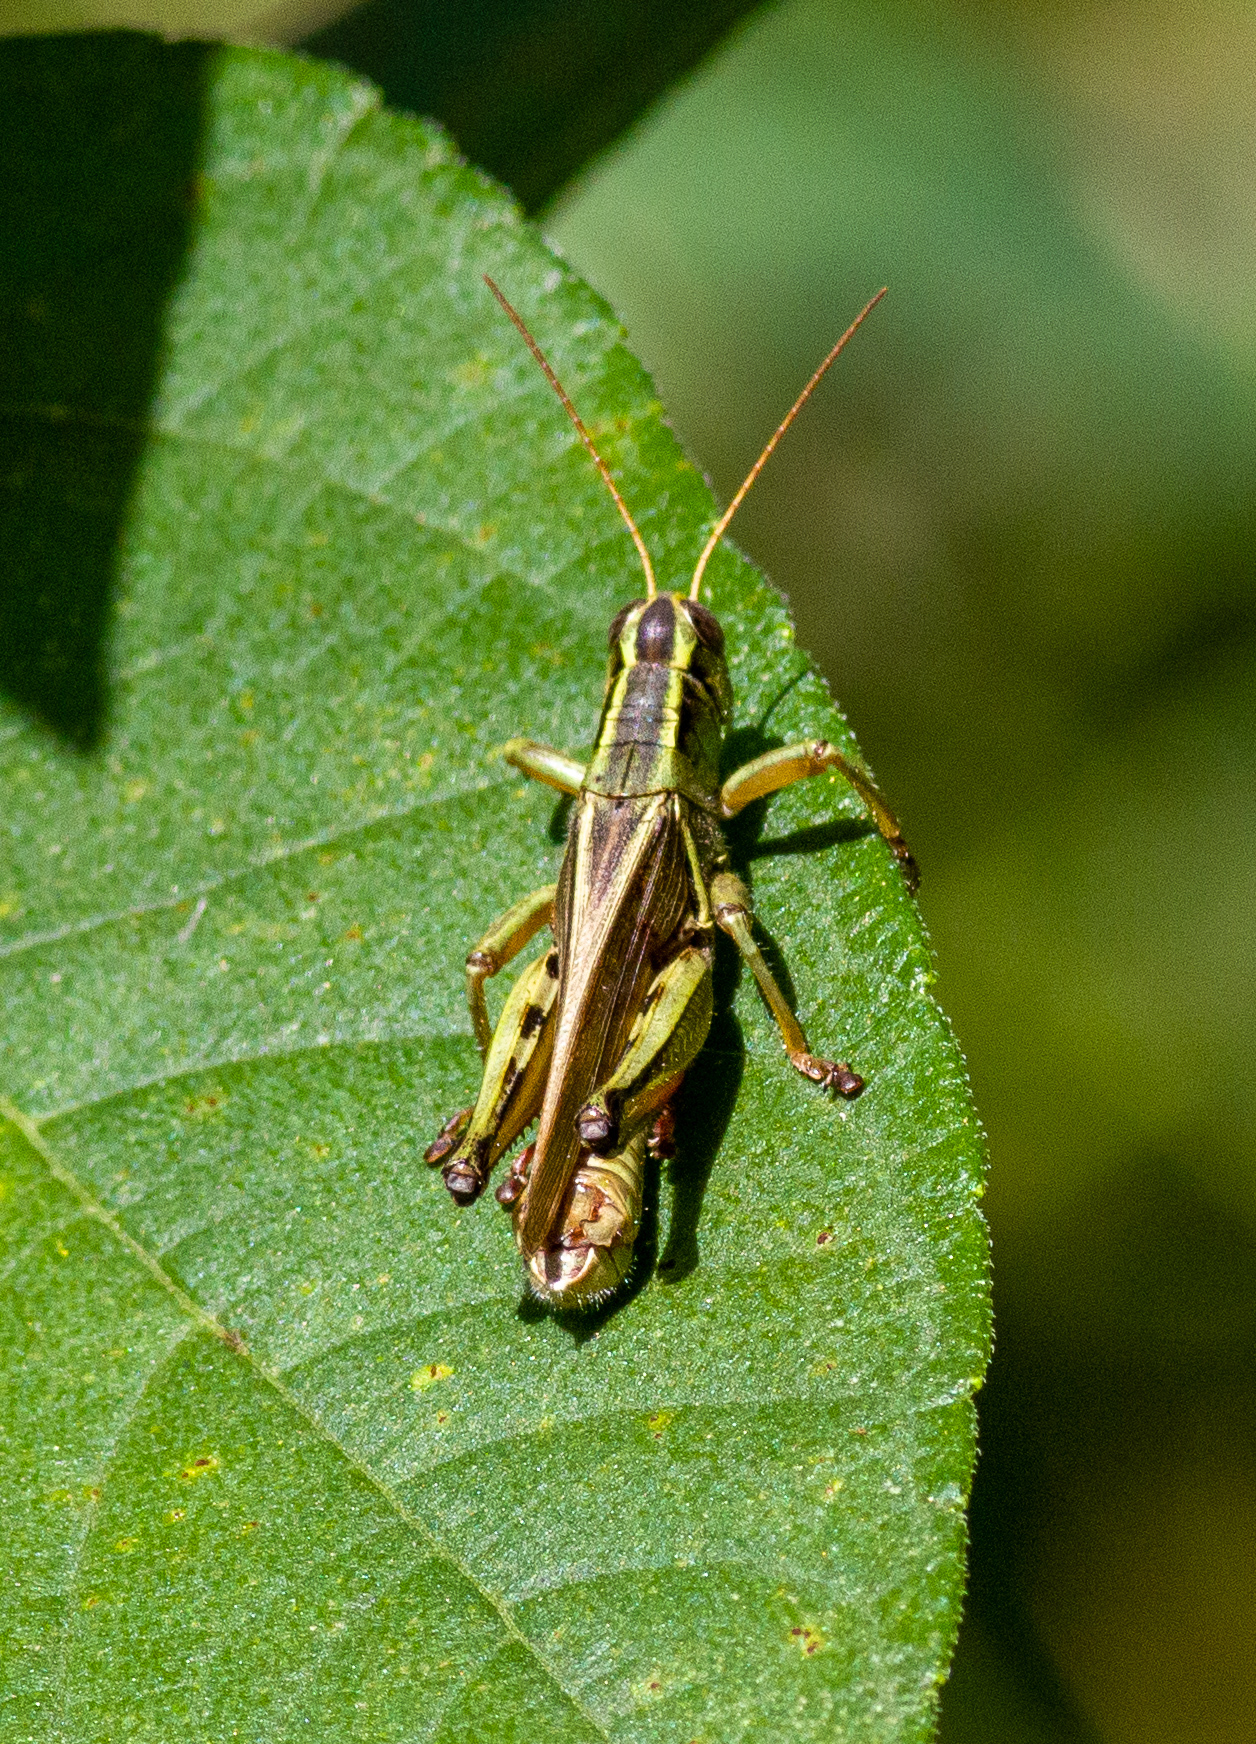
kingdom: Animalia
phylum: Arthropoda
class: Insecta
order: Orthoptera
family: Acrididae
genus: Melanoplus
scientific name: Melanoplus bivittatus
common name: Two-striped grasshopper
